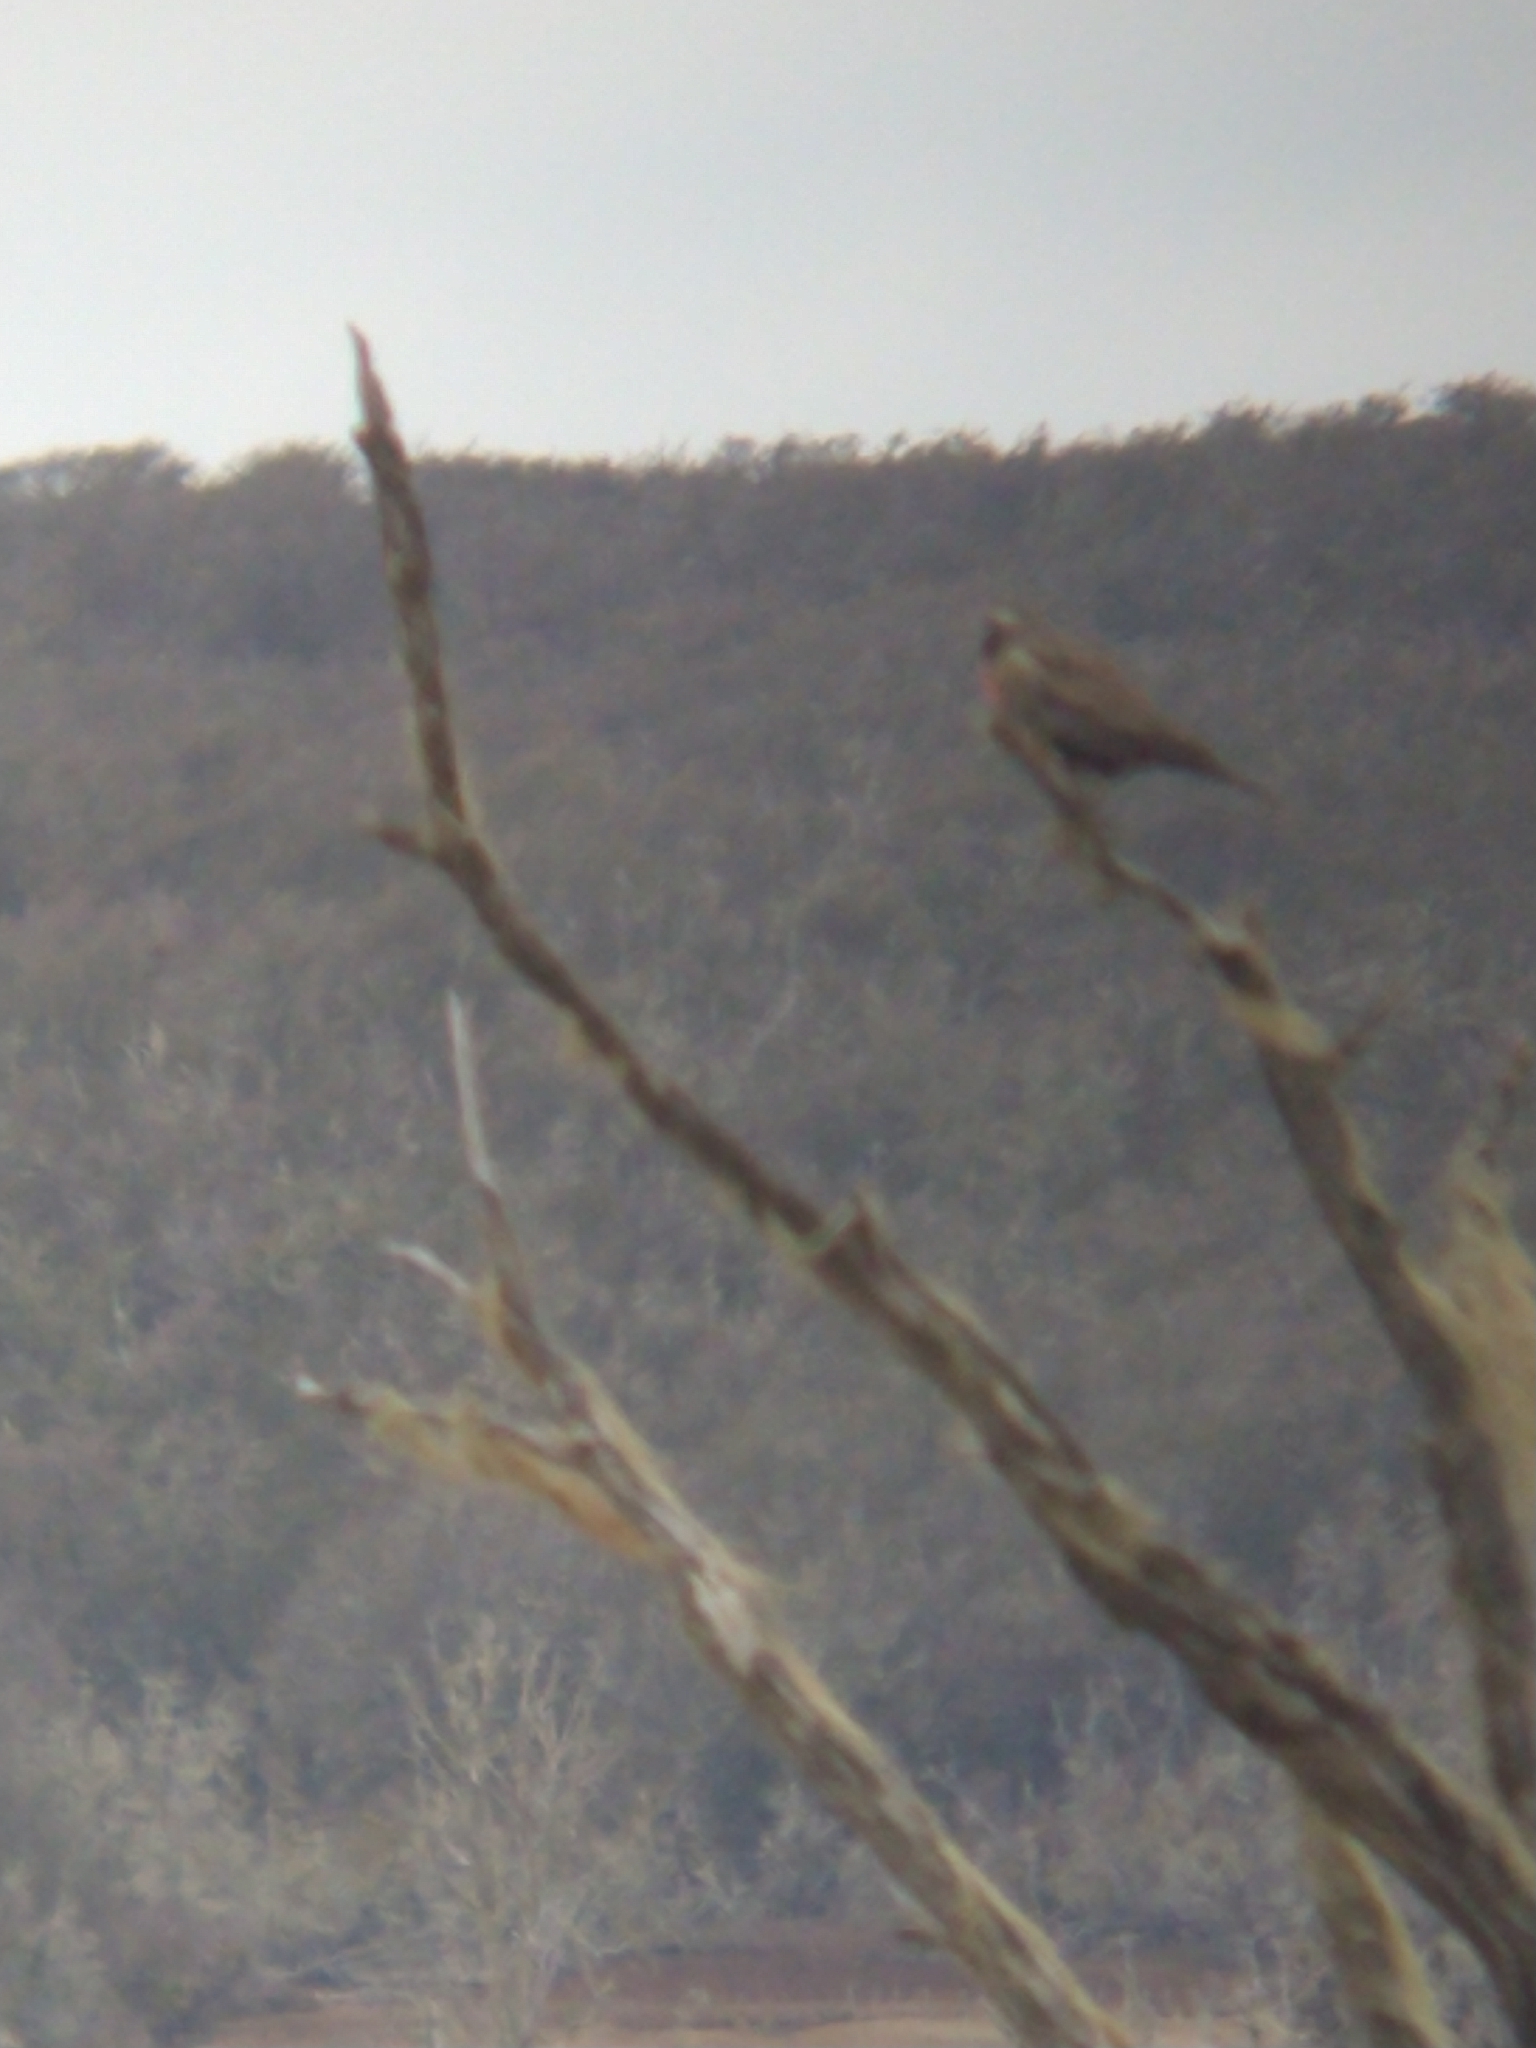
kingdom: Animalia
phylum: Chordata
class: Aves
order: Passeriformes
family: Icteridae
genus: Sturnella
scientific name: Sturnella loyca
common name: Long-tailed meadowlark
